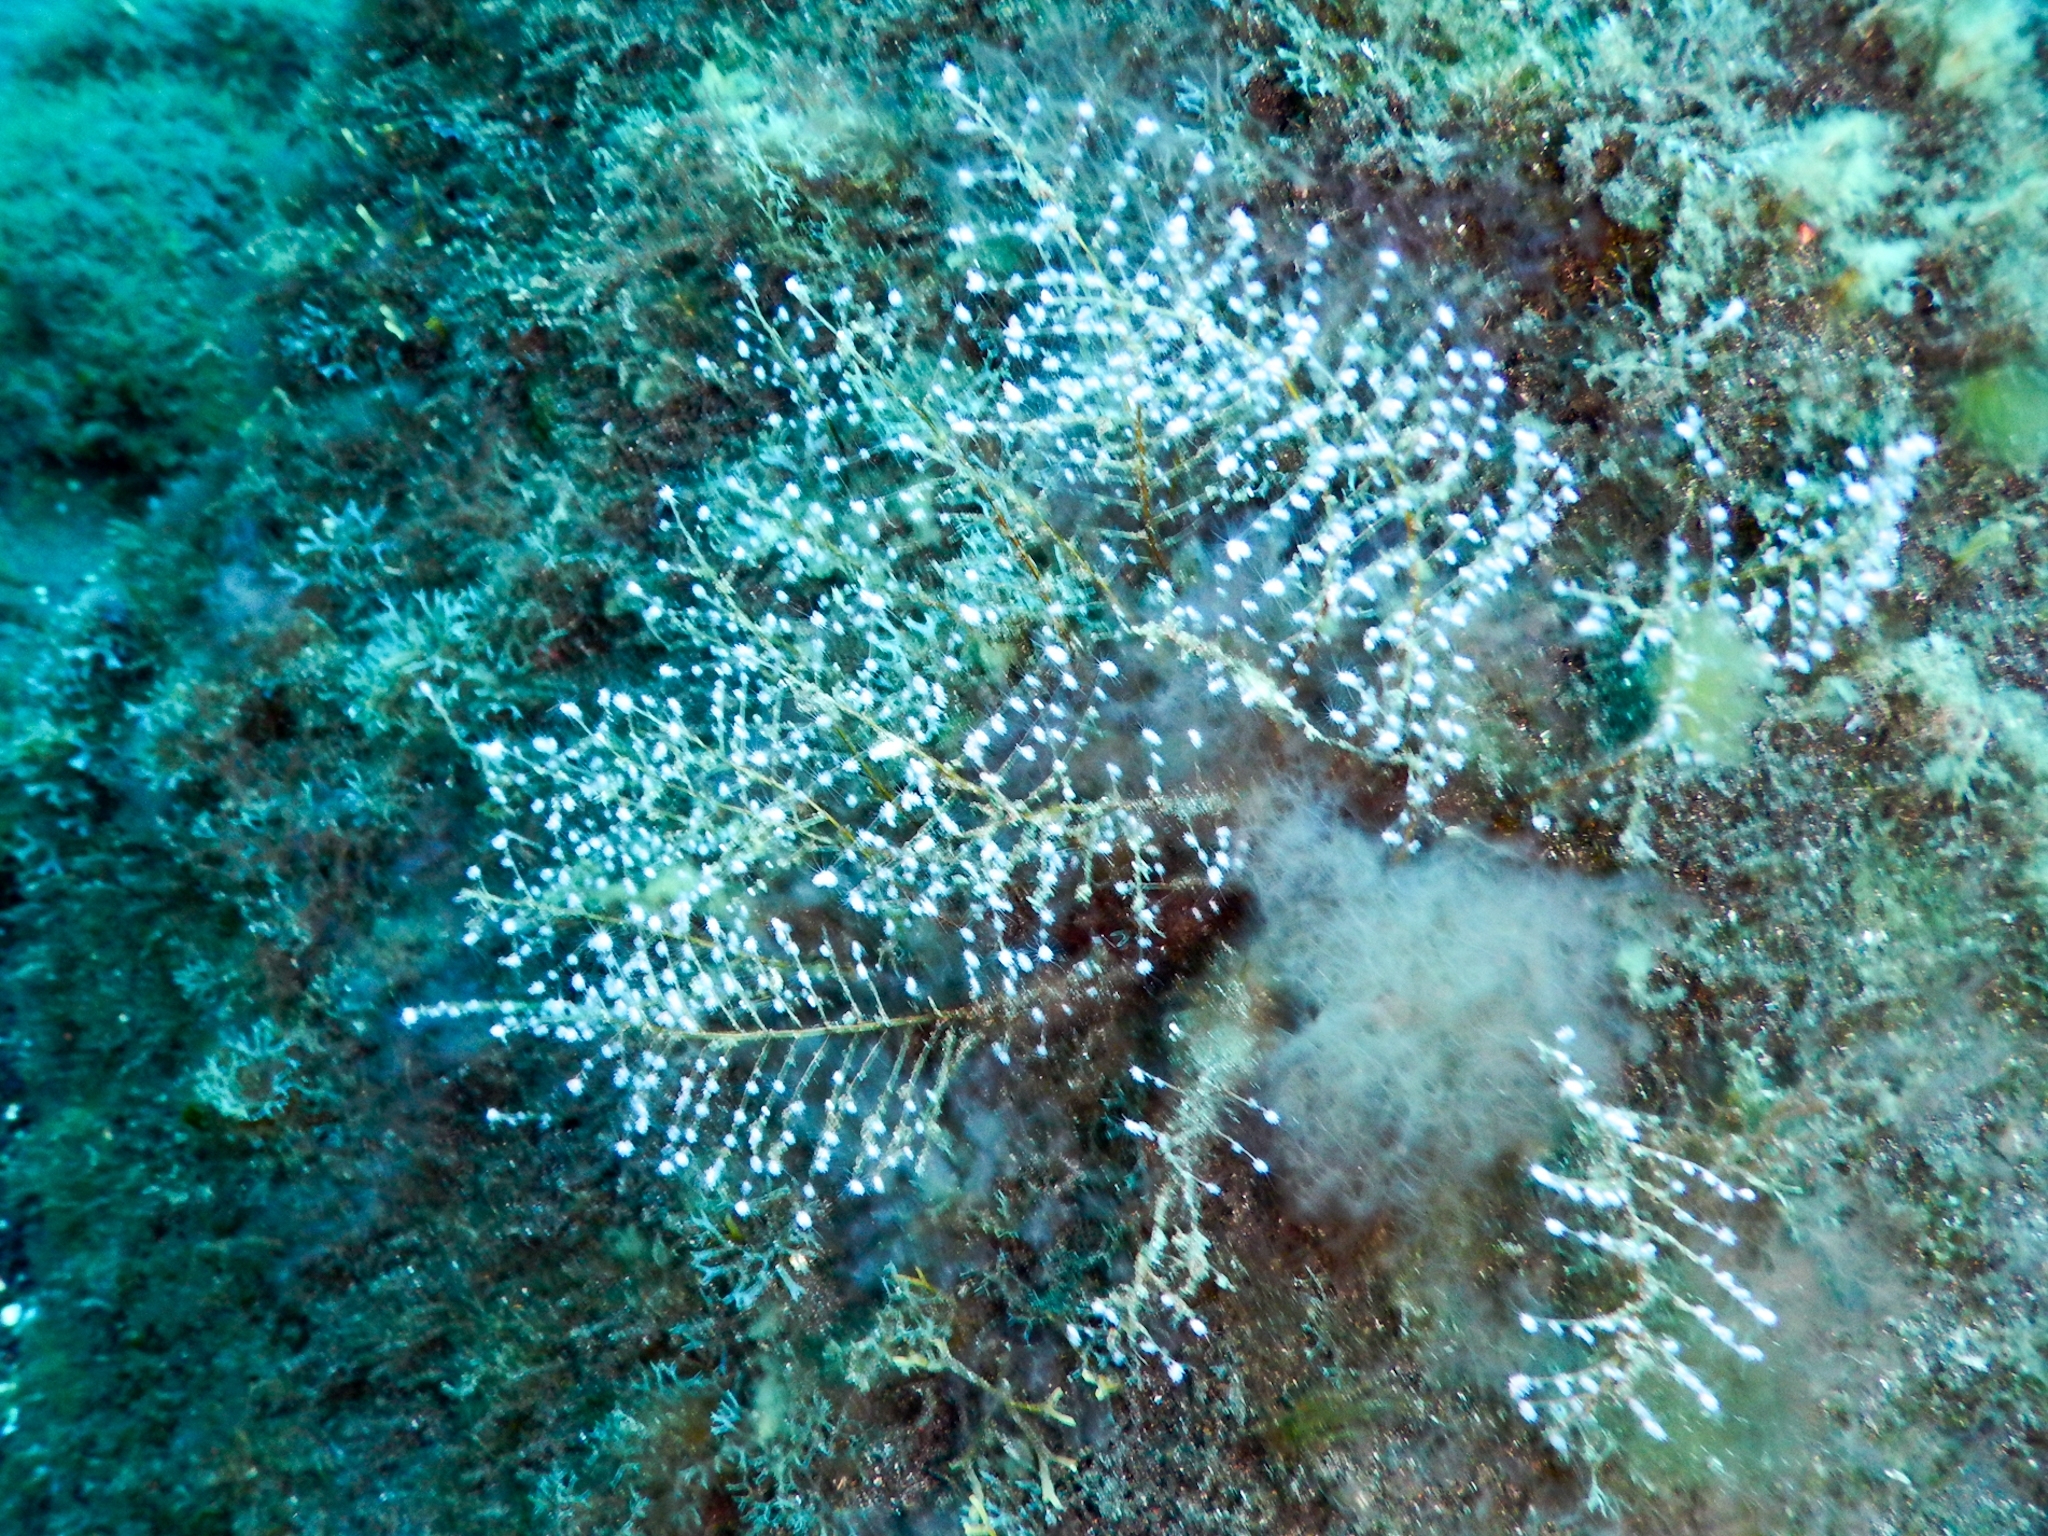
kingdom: Animalia
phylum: Cnidaria
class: Hydrozoa
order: Anthoathecata
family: Pennariidae
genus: Pennaria
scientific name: Pennaria disticha
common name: Feather hydroid
